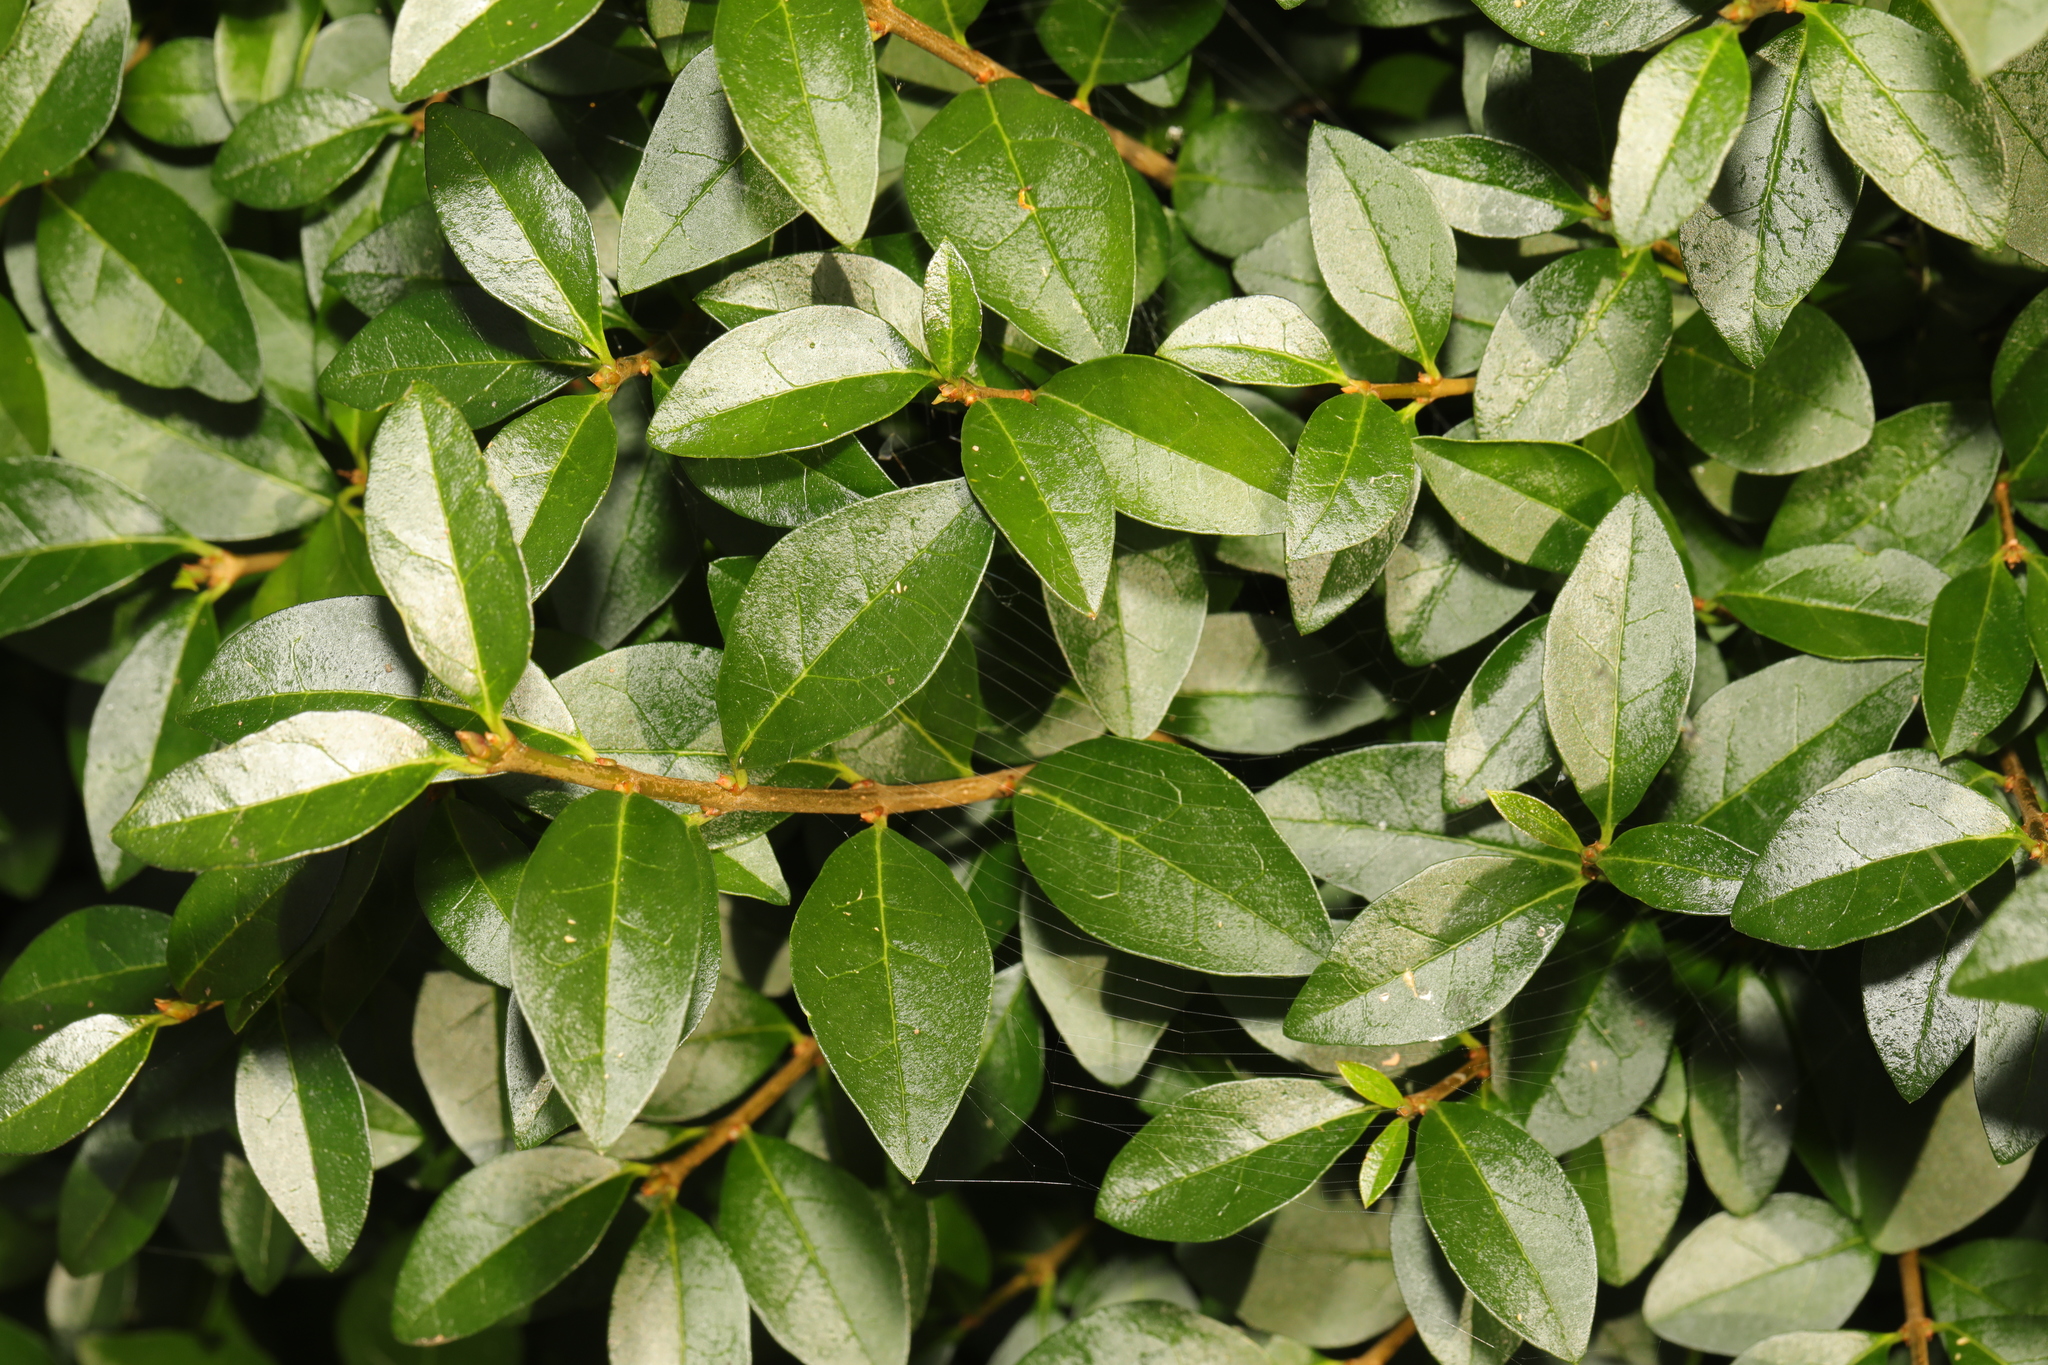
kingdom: Plantae
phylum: Tracheophyta
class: Magnoliopsida
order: Lamiales
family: Oleaceae
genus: Ligustrum
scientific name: Ligustrum ovalifolium
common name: California privet
